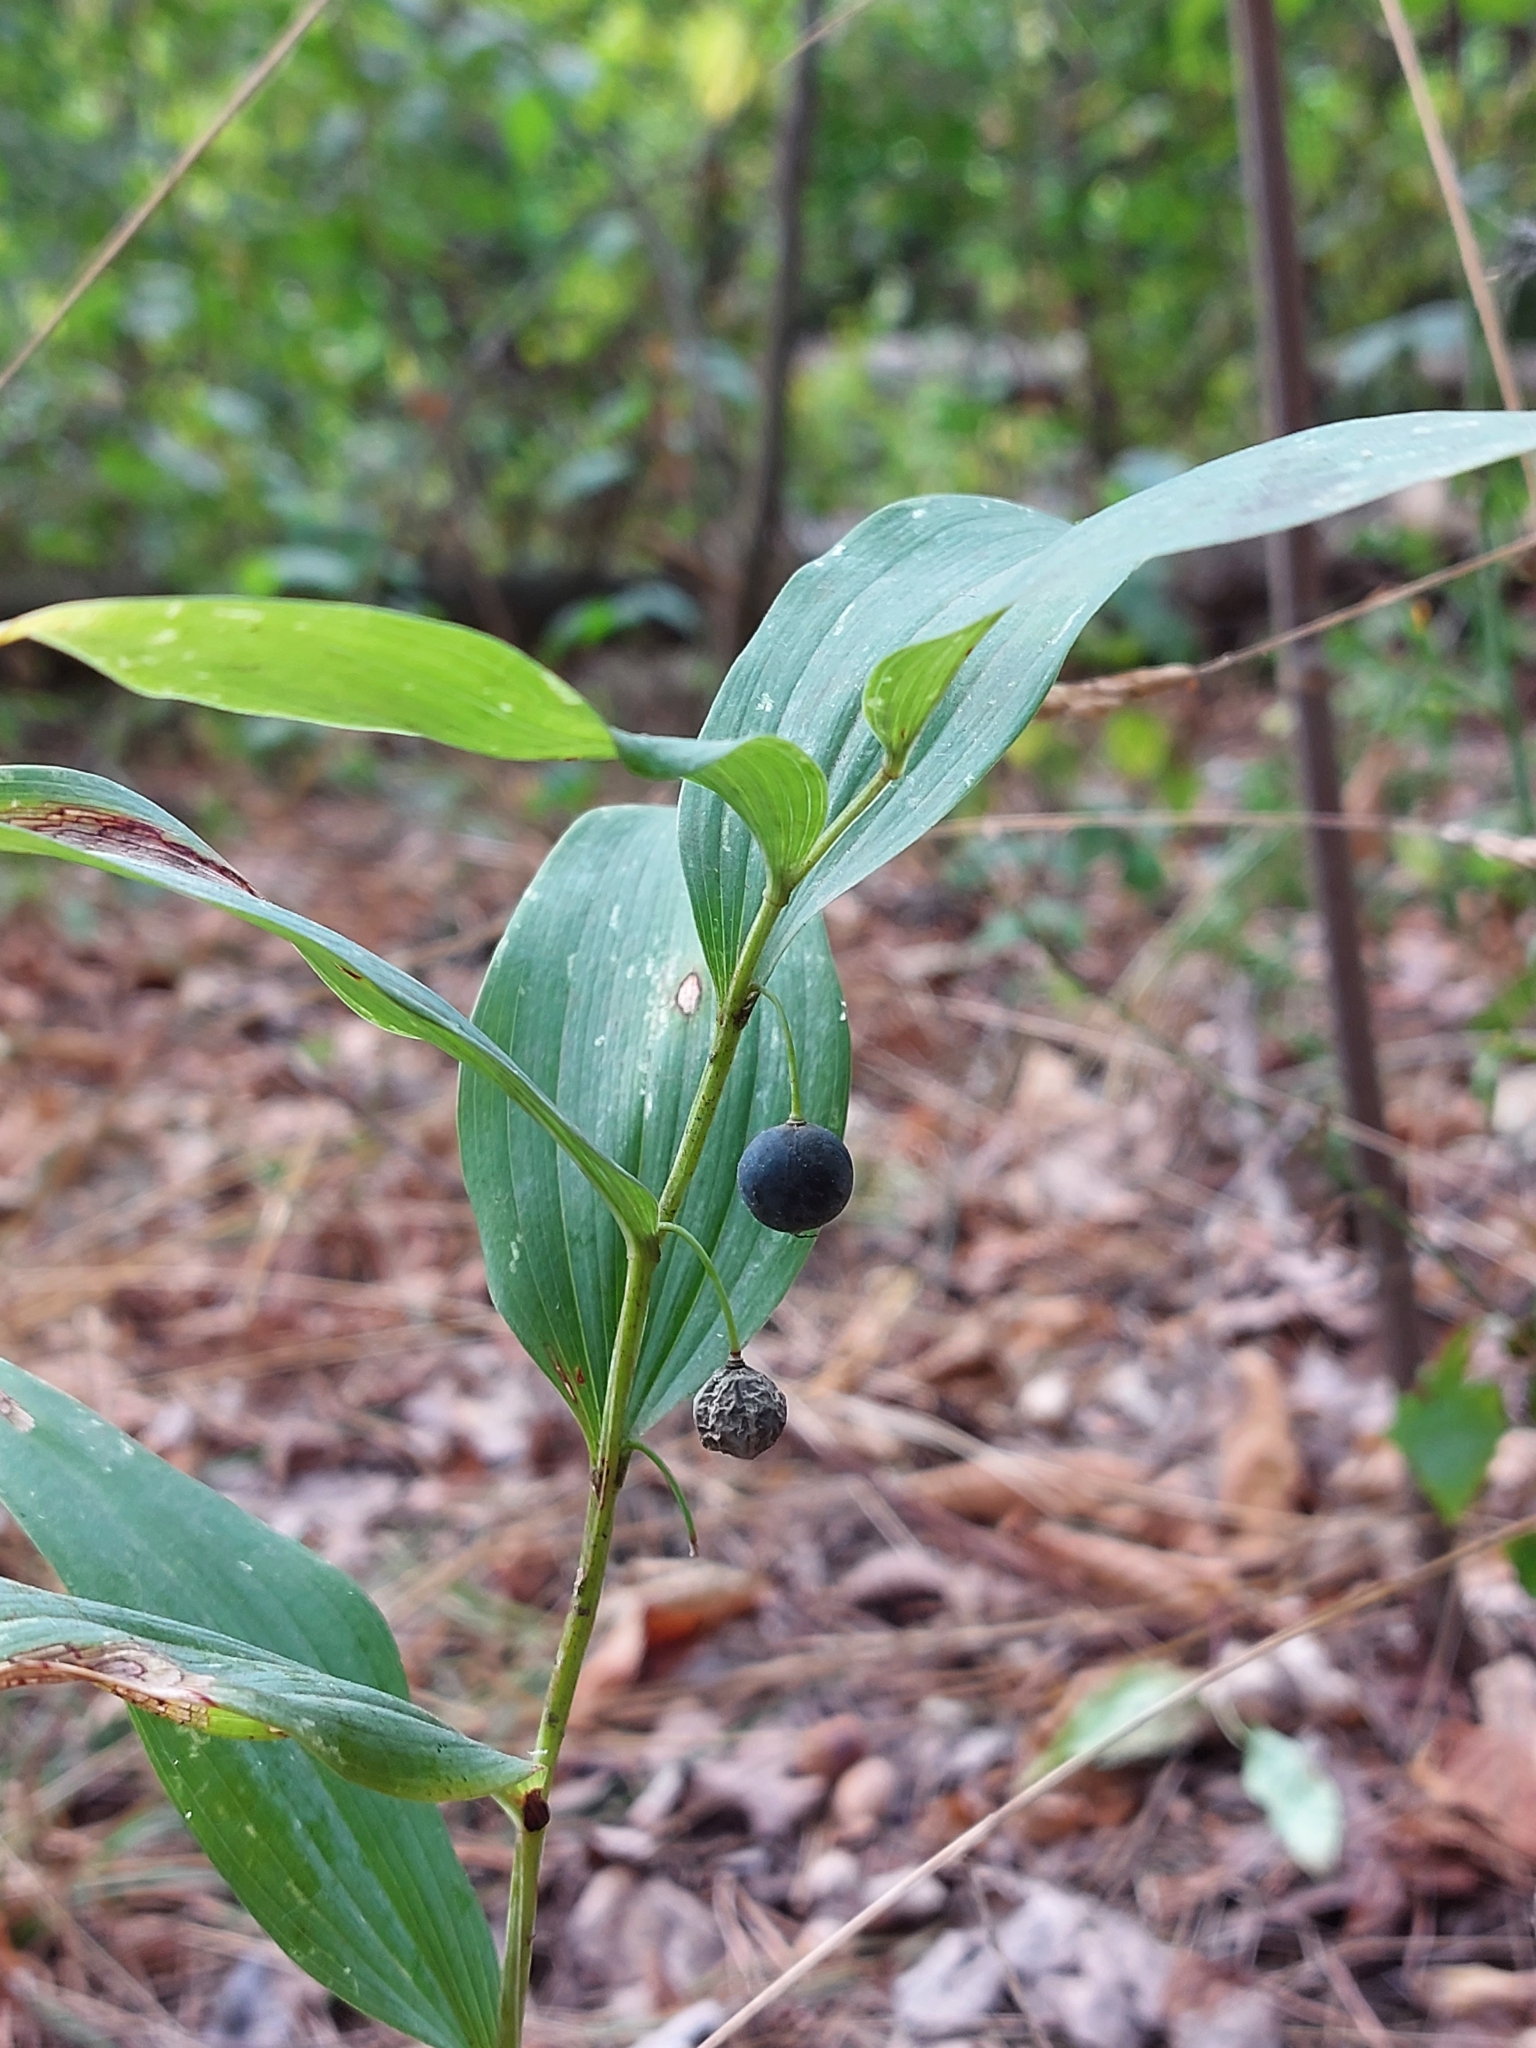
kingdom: Plantae
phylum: Tracheophyta
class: Liliopsida
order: Asparagales
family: Asparagaceae
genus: Polygonatum
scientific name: Polygonatum odoratum
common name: Angular solomon's-seal
